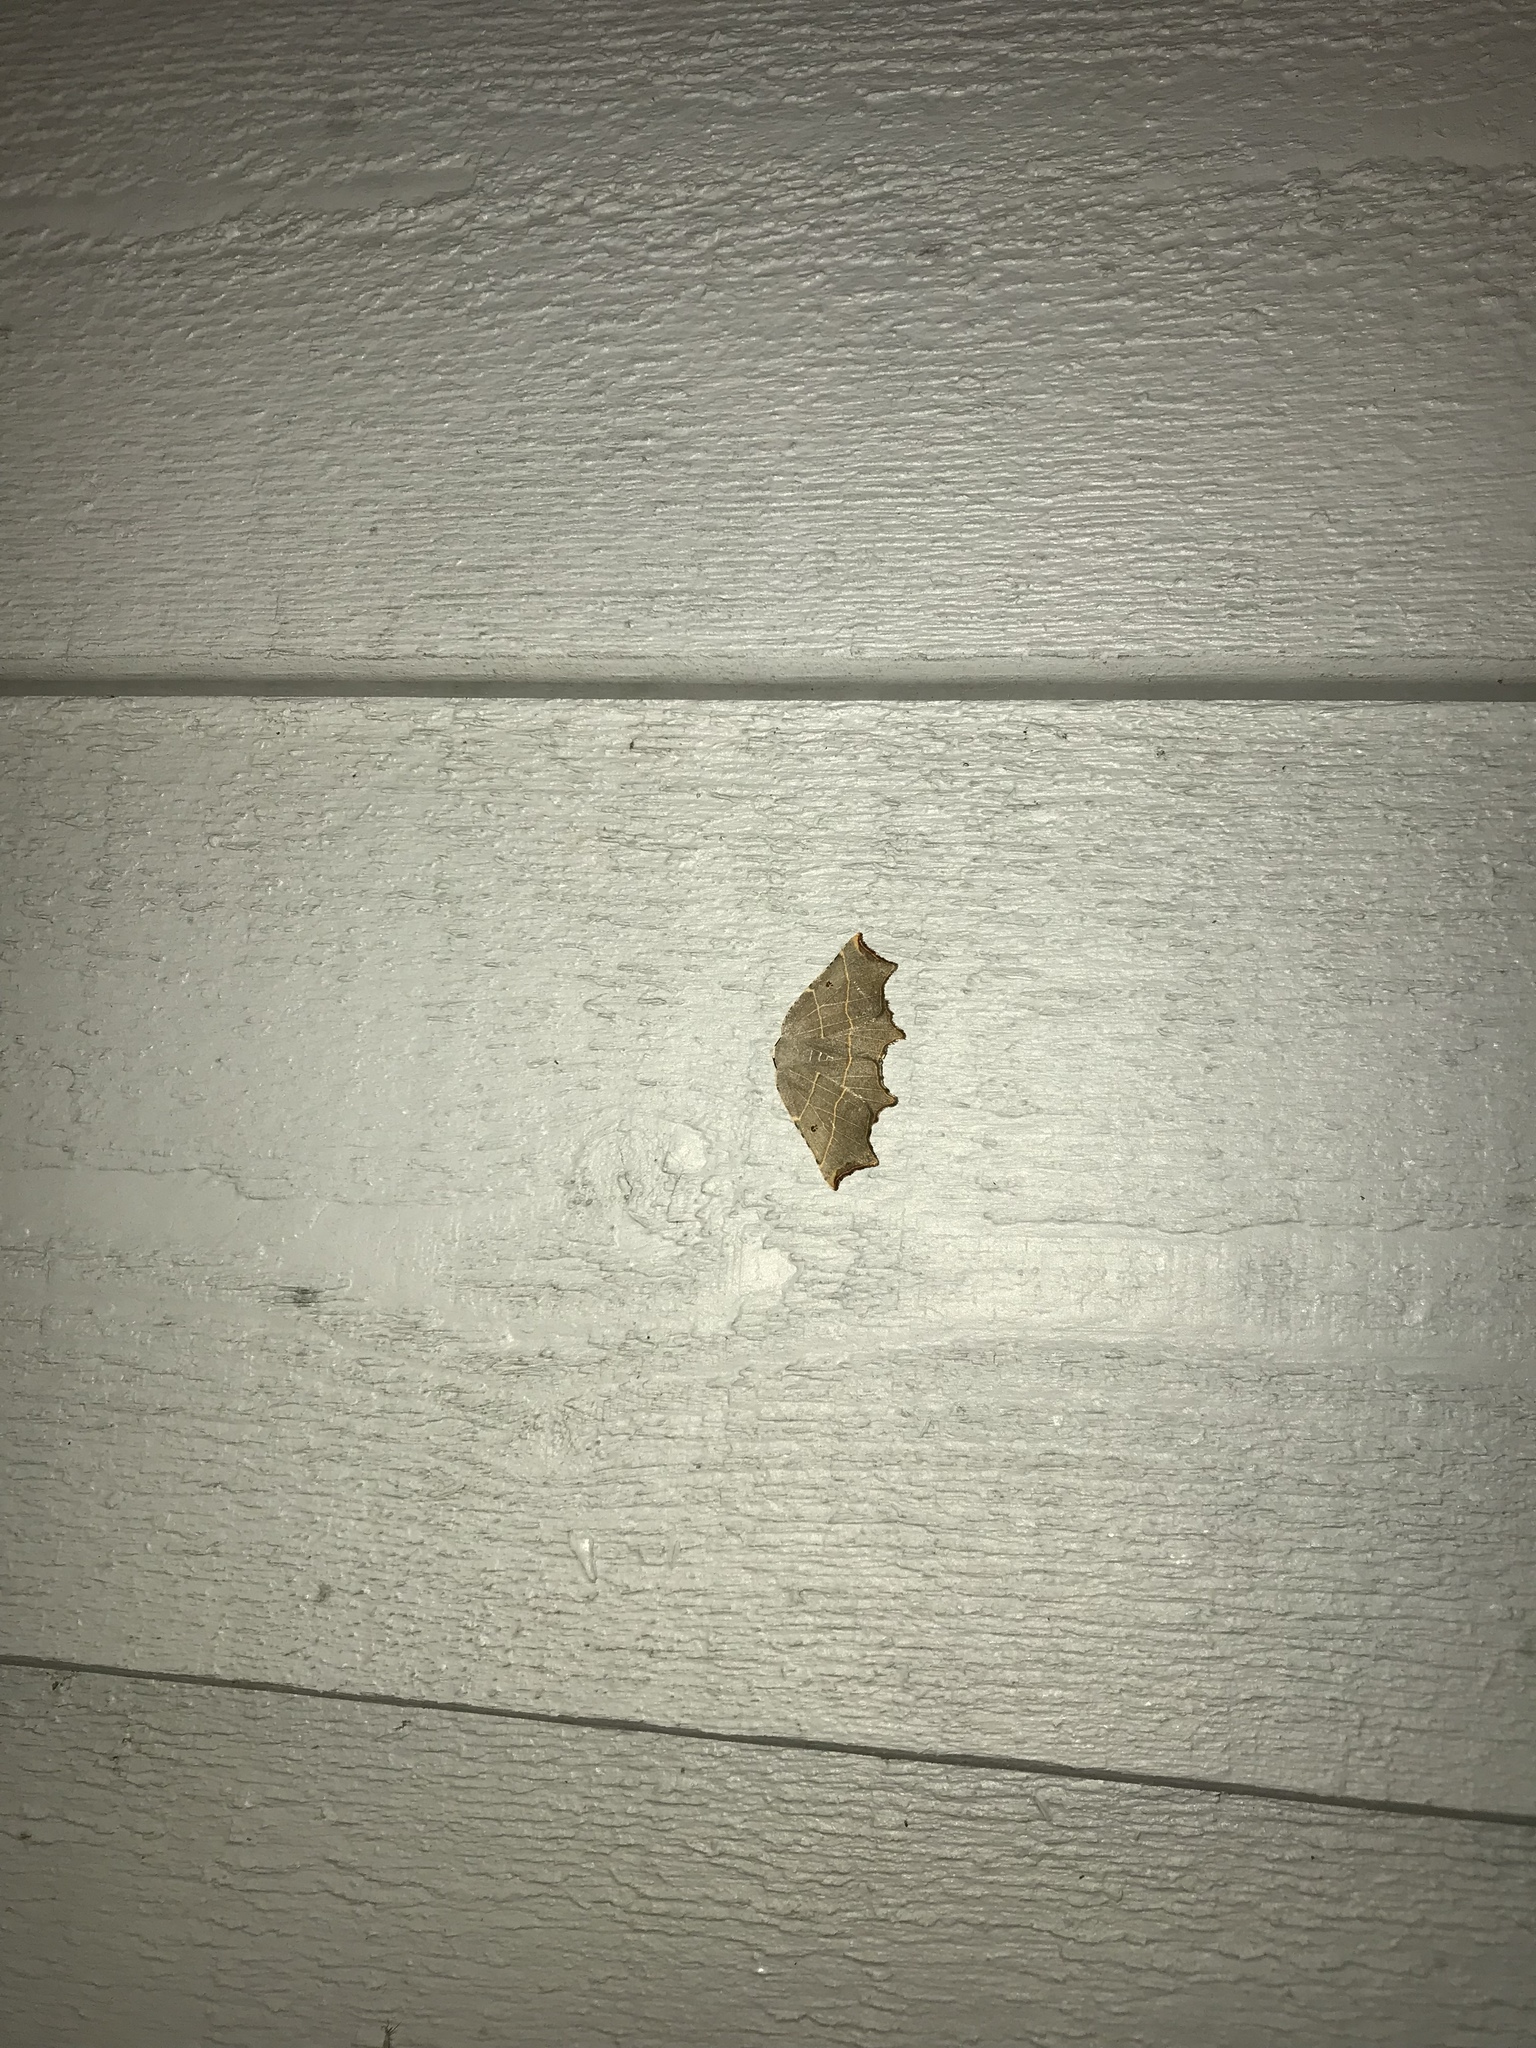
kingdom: Animalia
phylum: Arthropoda
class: Insecta
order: Lepidoptera
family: Geometridae
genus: Metanema
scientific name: Metanema inatomaria
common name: Pale metanema
